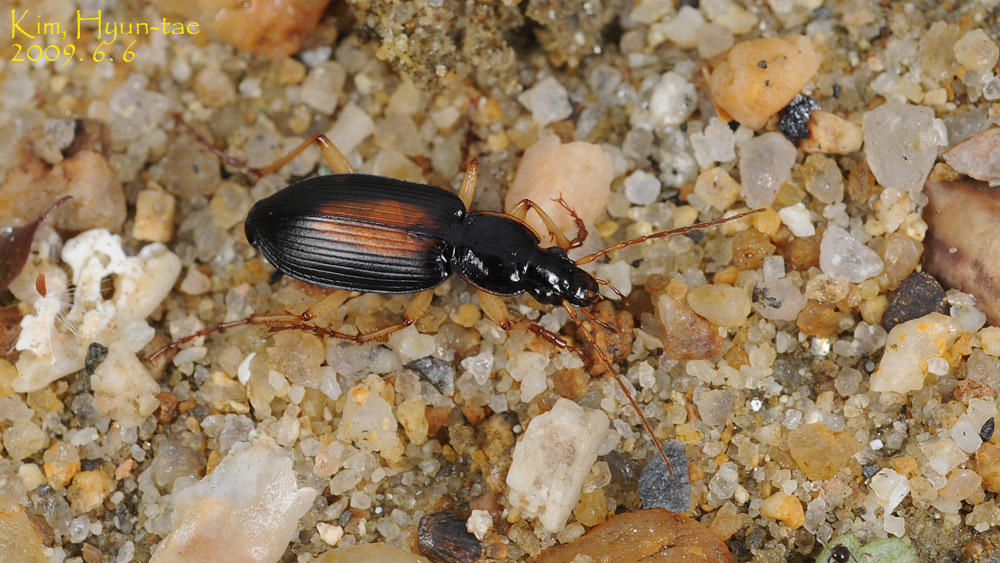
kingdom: Animalia
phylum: Arthropoda
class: Insecta
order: Coleoptera
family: Carabidae
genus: Dolichus
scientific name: Dolichus halensis
